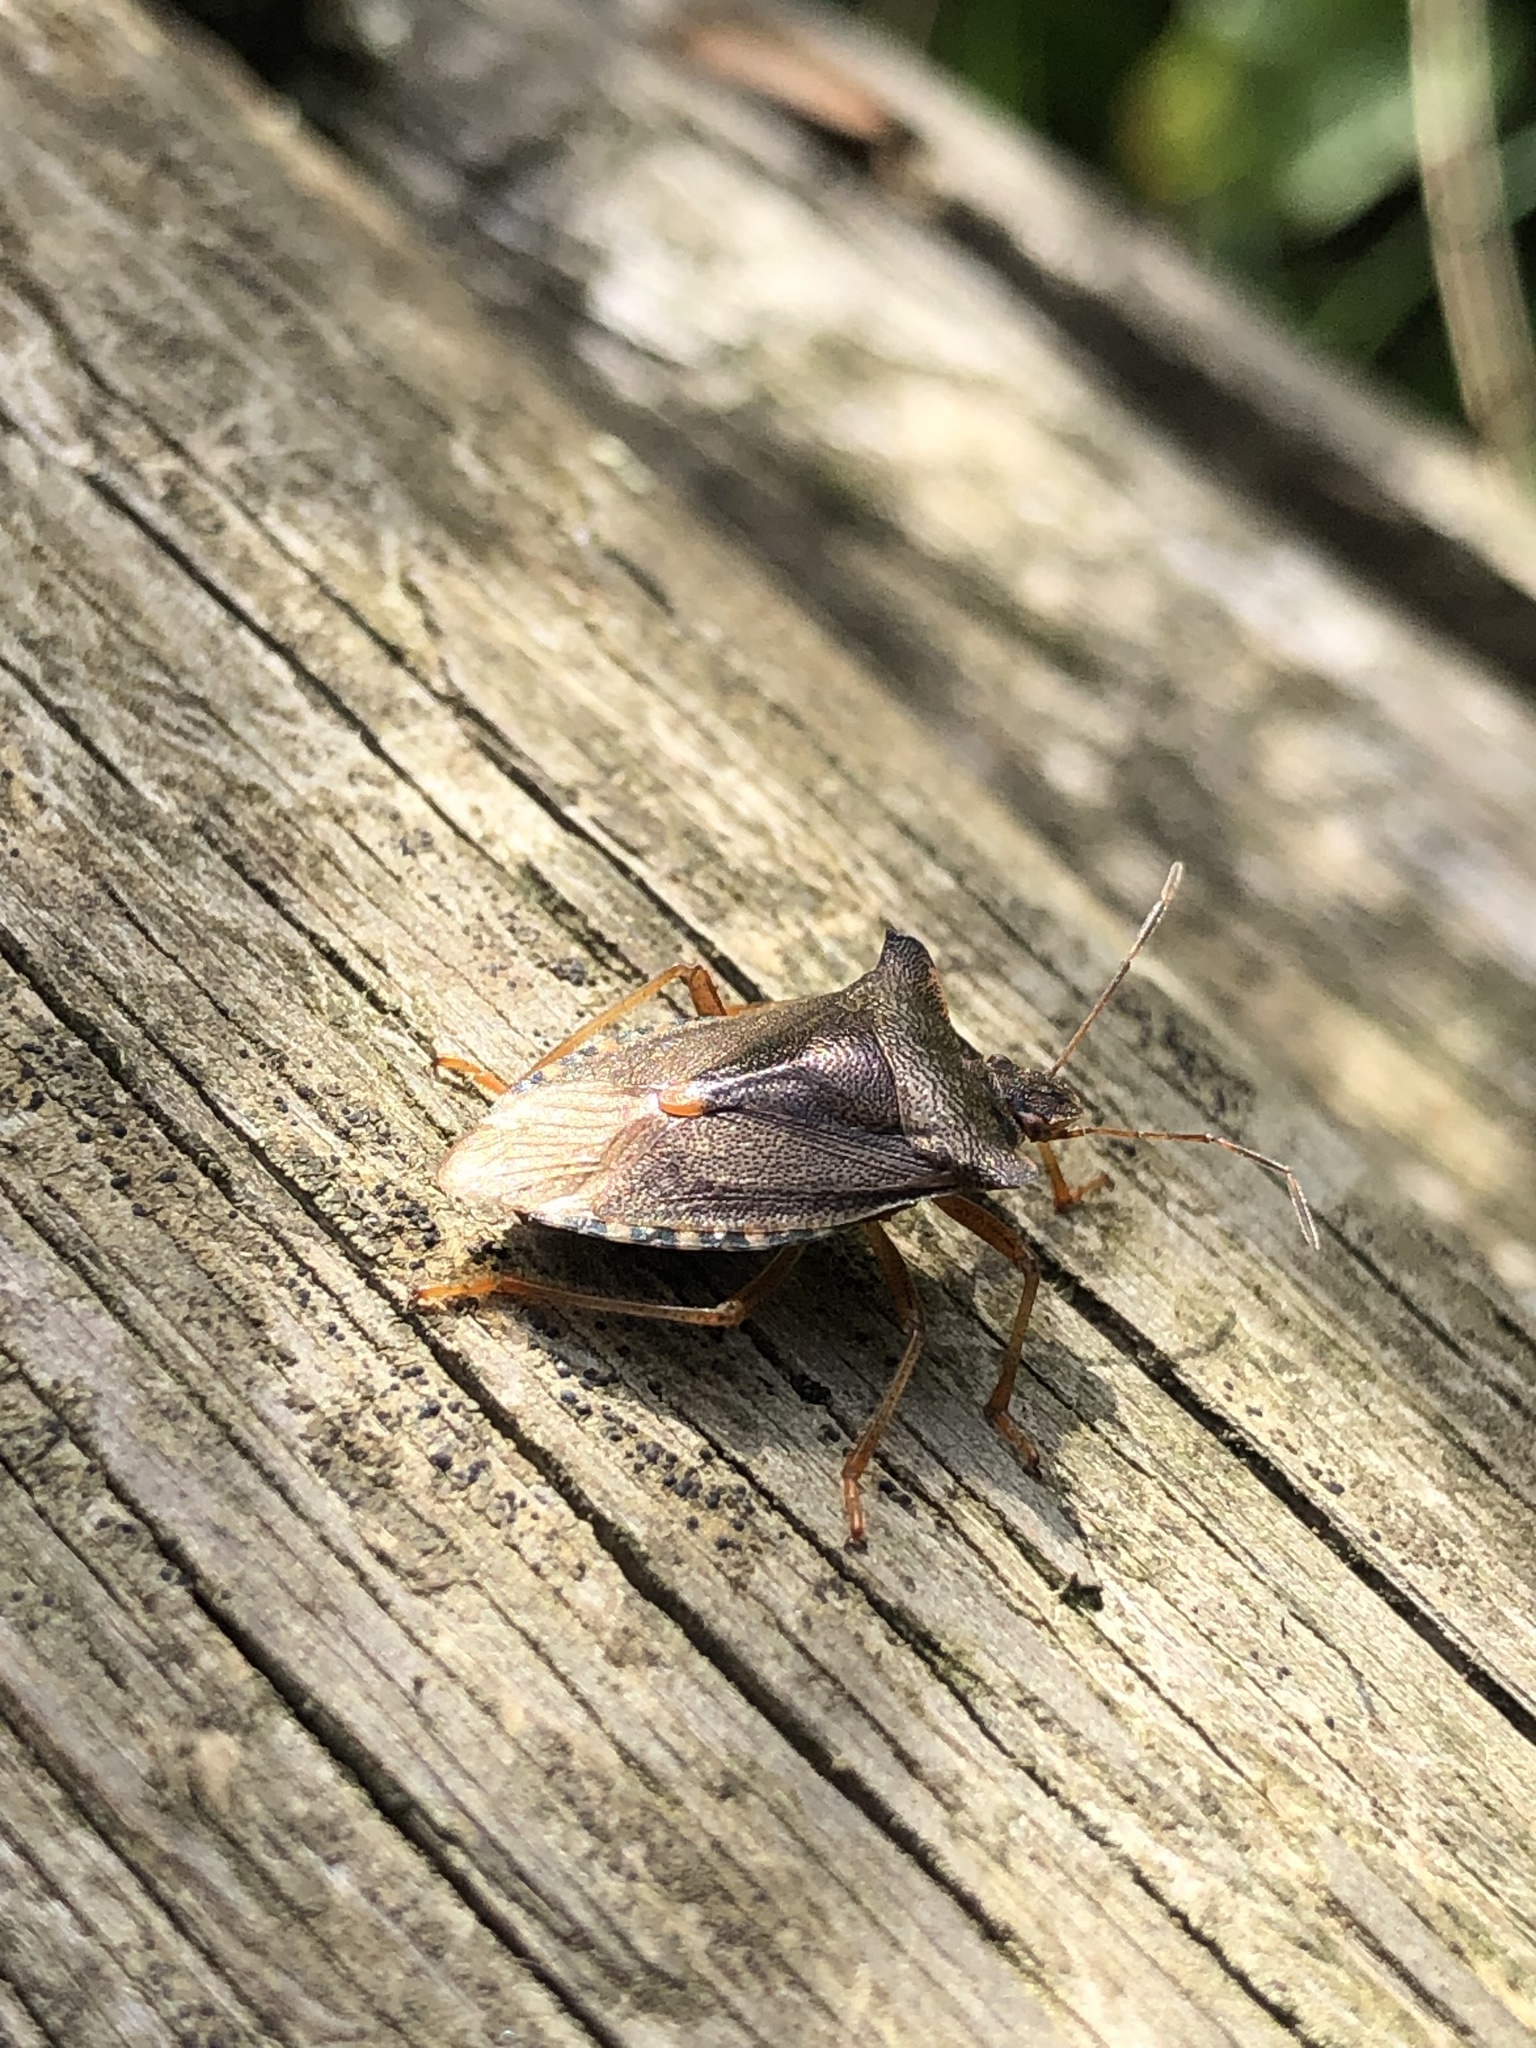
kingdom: Animalia
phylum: Arthropoda
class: Insecta
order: Hemiptera
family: Pentatomidae
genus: Pentatoma
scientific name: Pentatoma rufipes
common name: Forest bug
